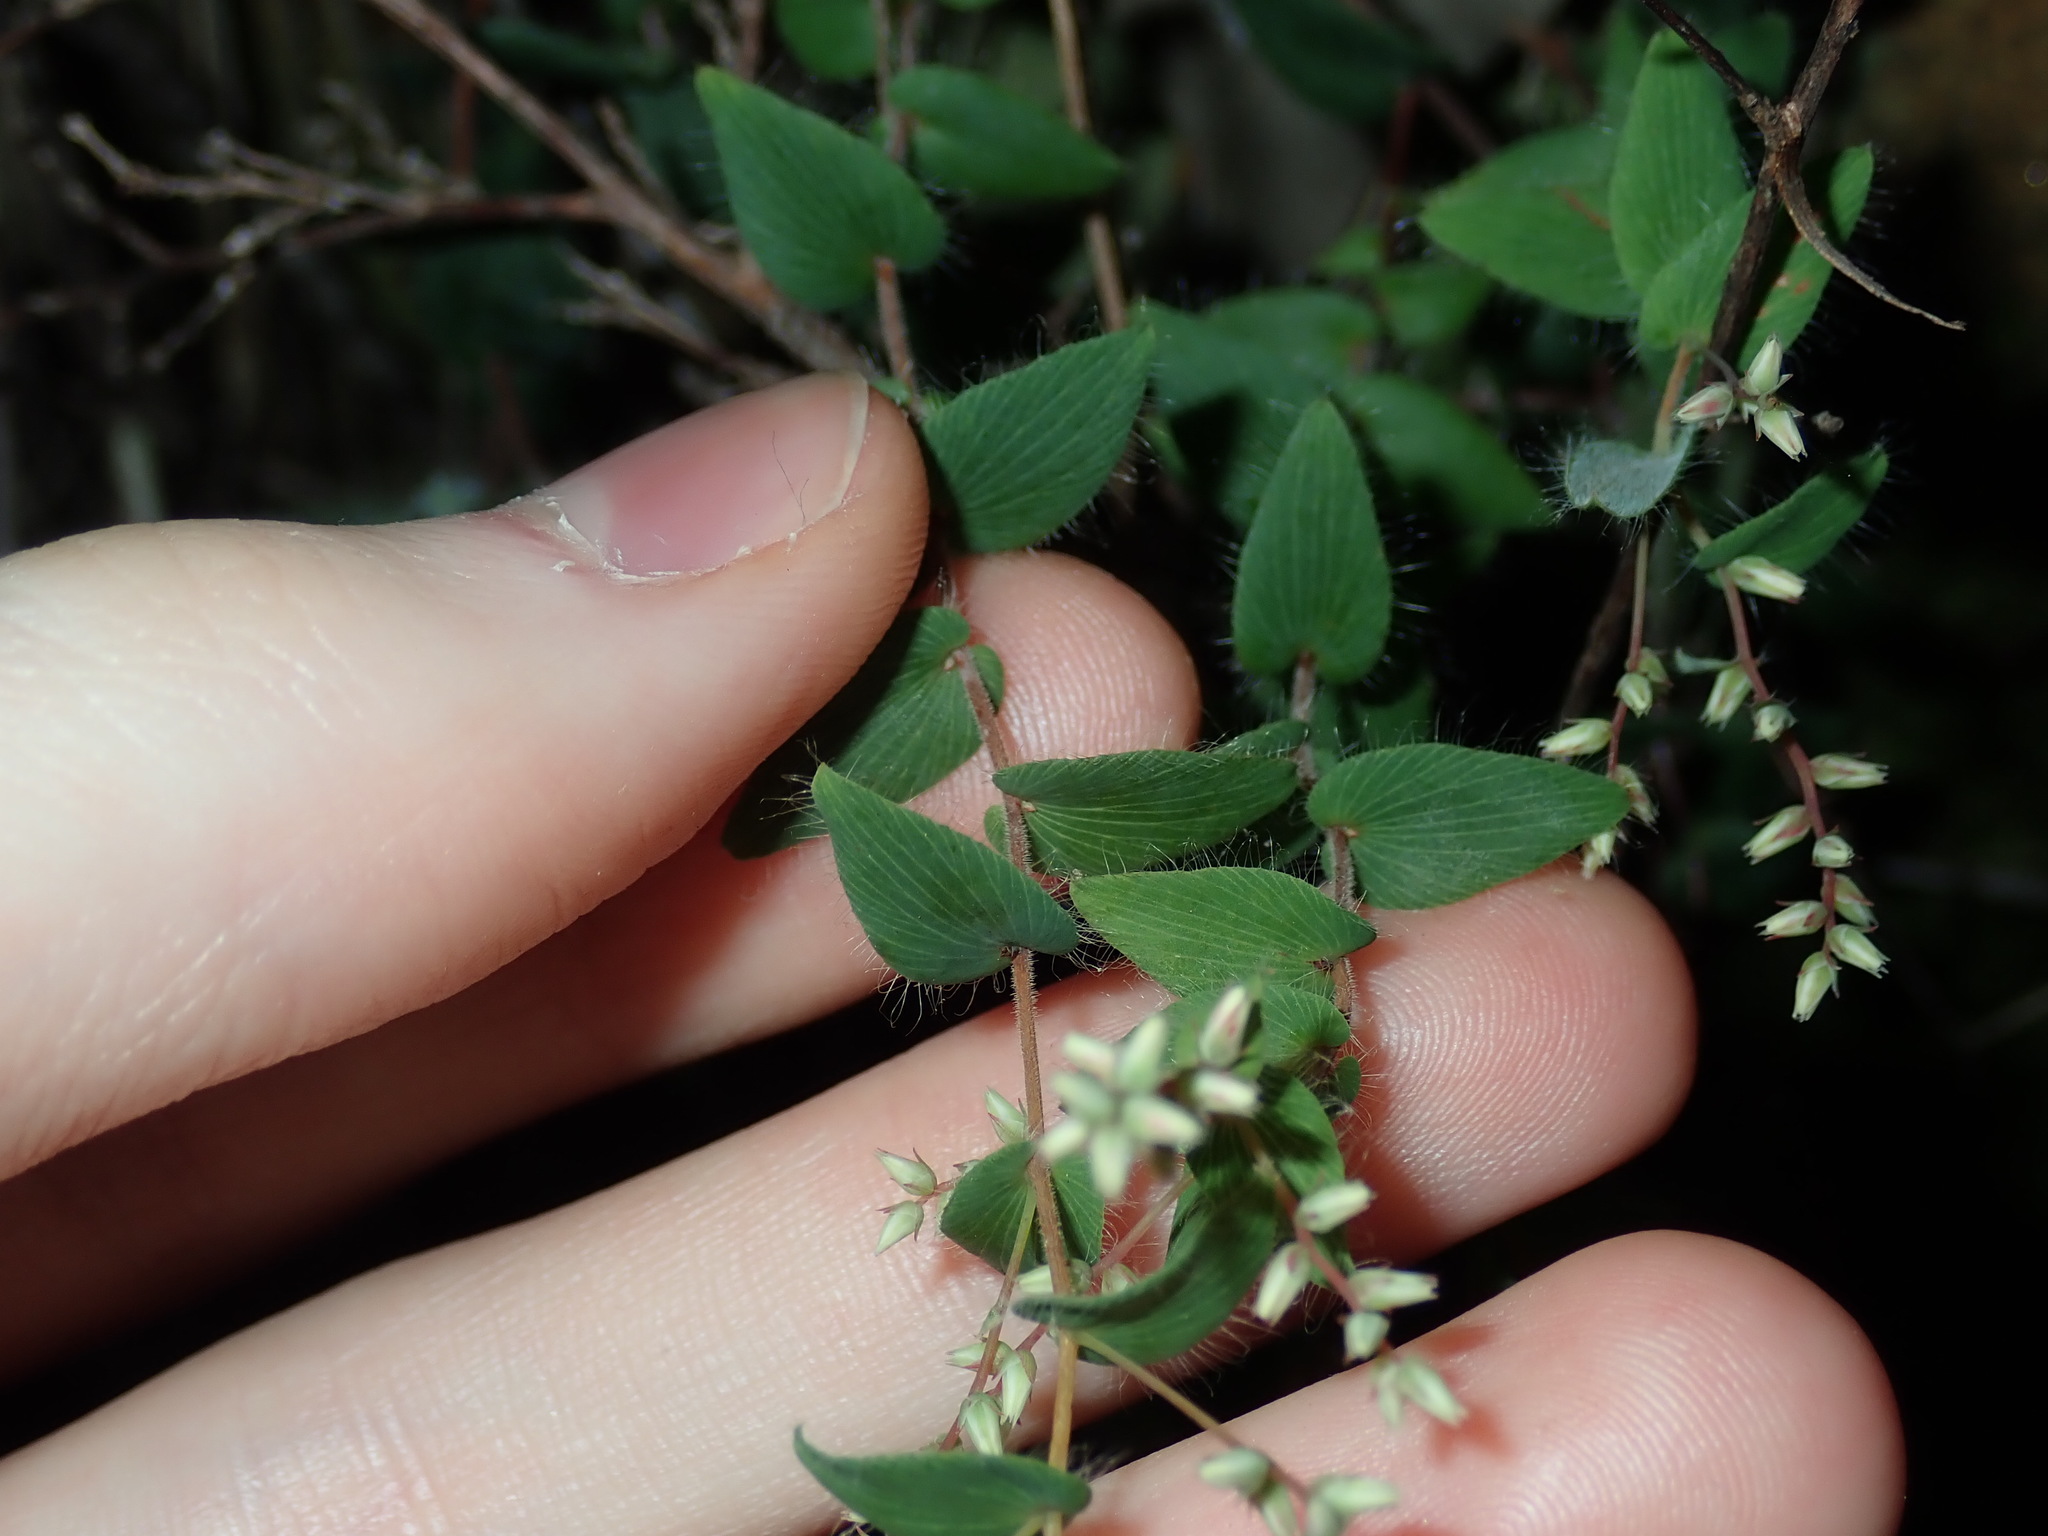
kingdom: Plantae
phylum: Tracheophyta
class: Magnoliopsida
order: Ericales
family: Ericaceae
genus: Leucopogon
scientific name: Leucopogon amplexicaulis
